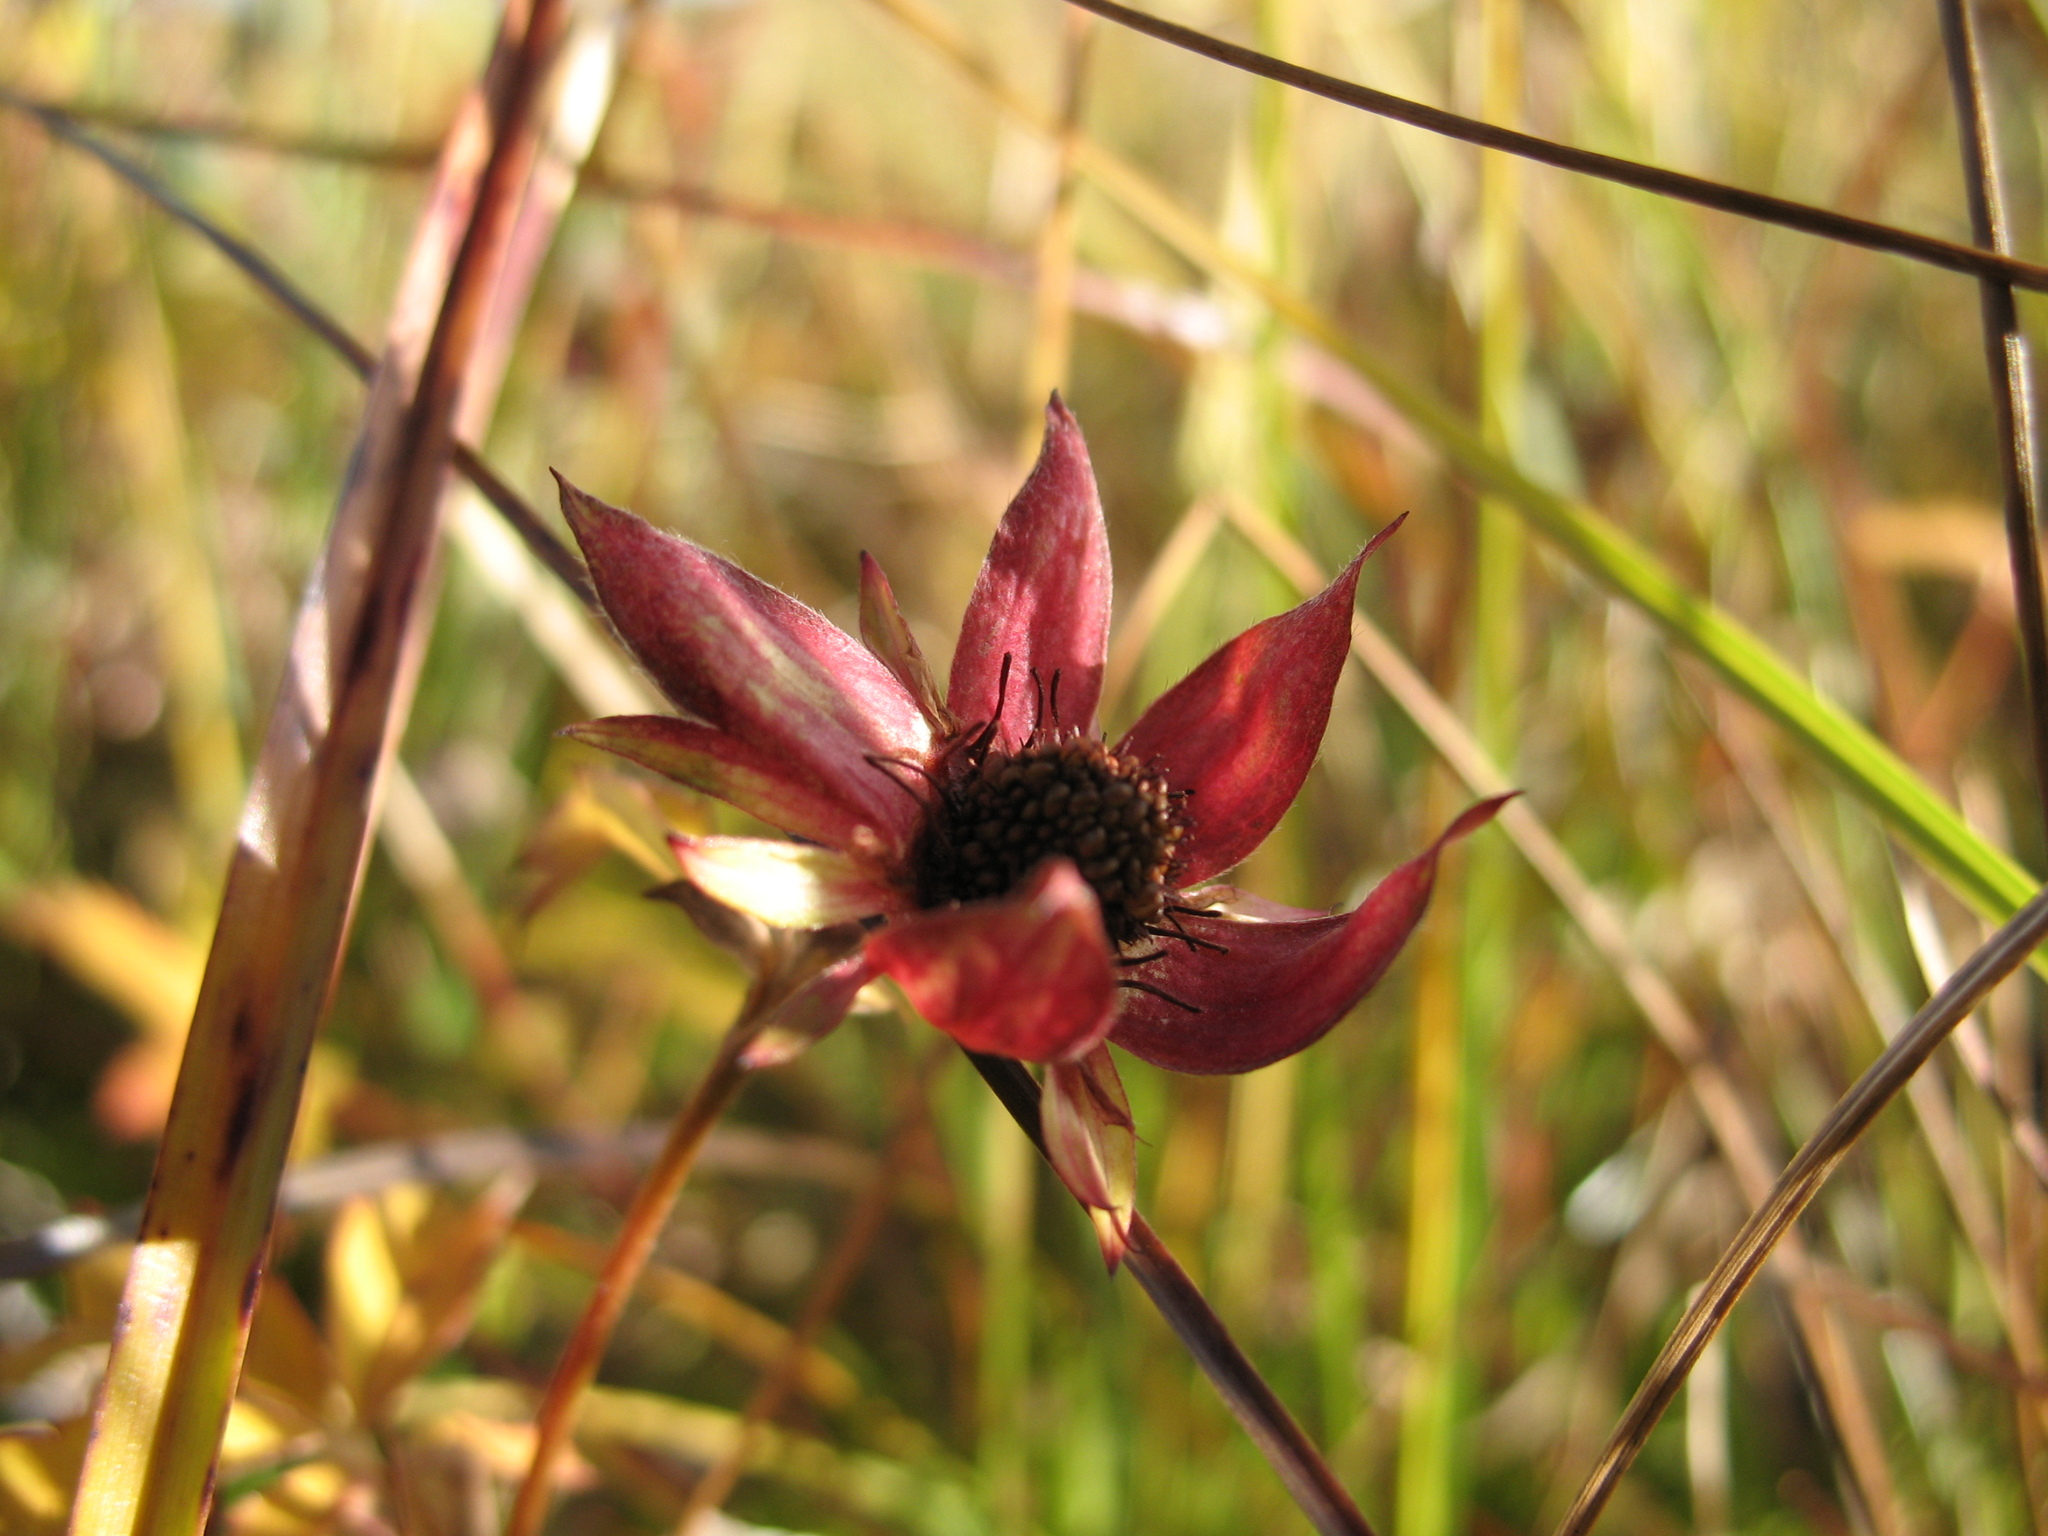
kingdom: Plantae
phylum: Tracheophyta
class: Magnoliopsida
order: Rosales
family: Rosaceae
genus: Comarum
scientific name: Comarum palustre
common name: Marsh cinquefoil
